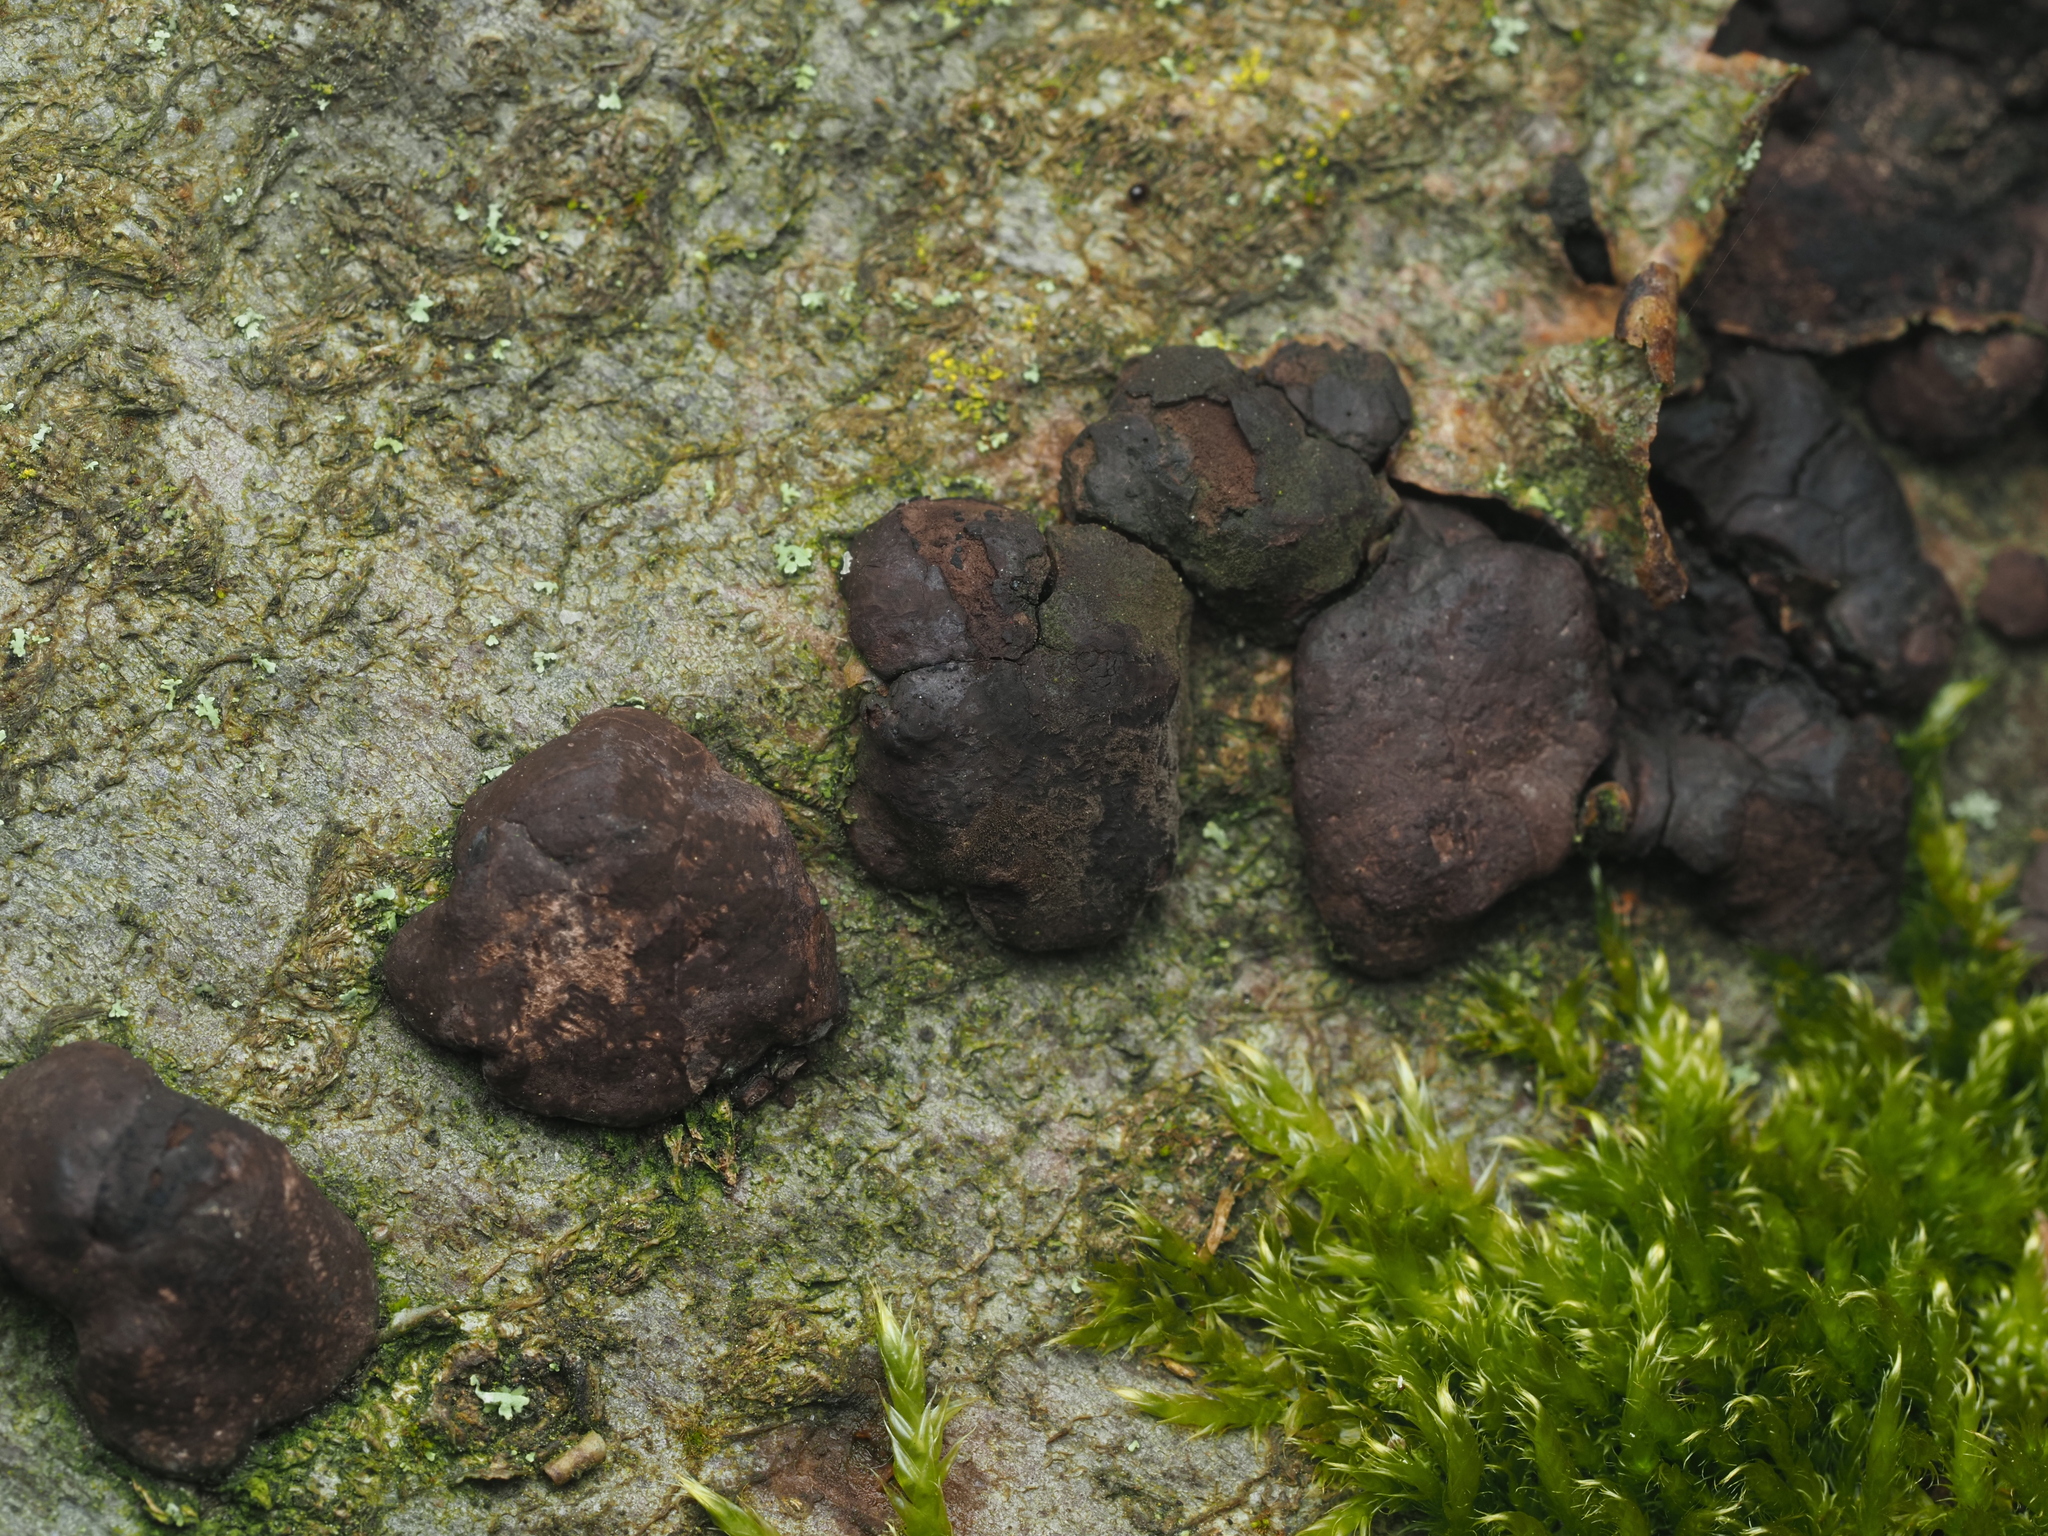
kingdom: Fungi
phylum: Ascomycota
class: Sordariomycetes
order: Xylariales
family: Hypoxylaceae
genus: Hypoxylon
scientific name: Hypoxylon fragiforme
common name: Beech woodwart
